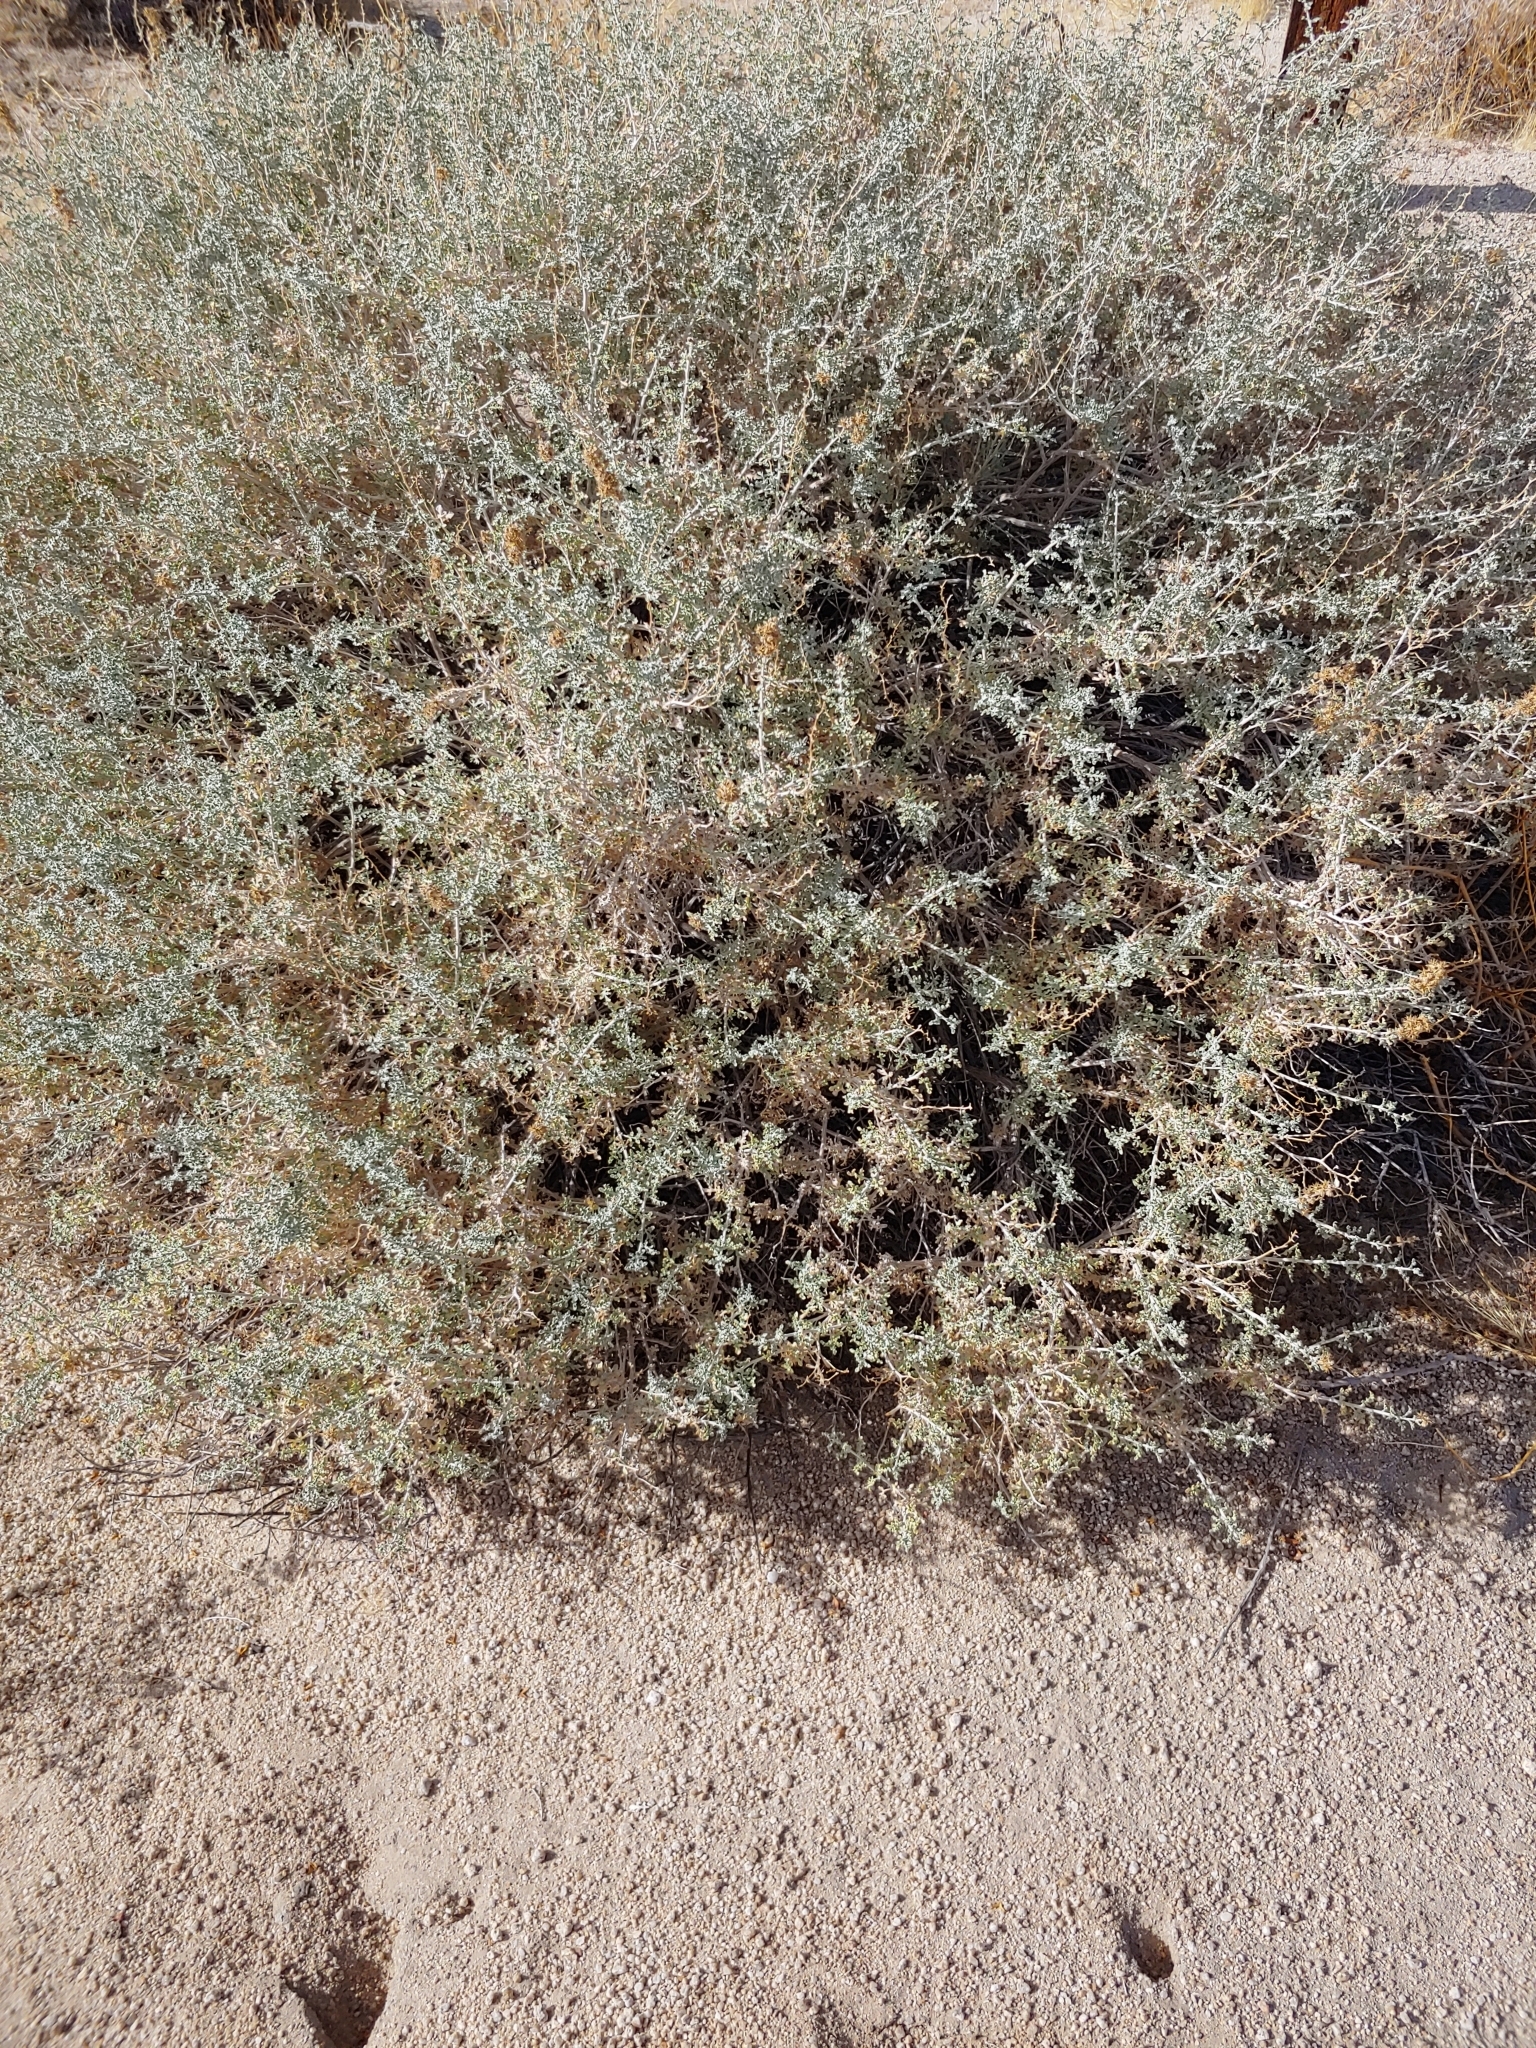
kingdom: Plantae
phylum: Tracheophyta
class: Magnoliopsida
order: Asterales
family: Asteraceae
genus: Ambrosia
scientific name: Ambrosia dumosa
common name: Bur-sage
